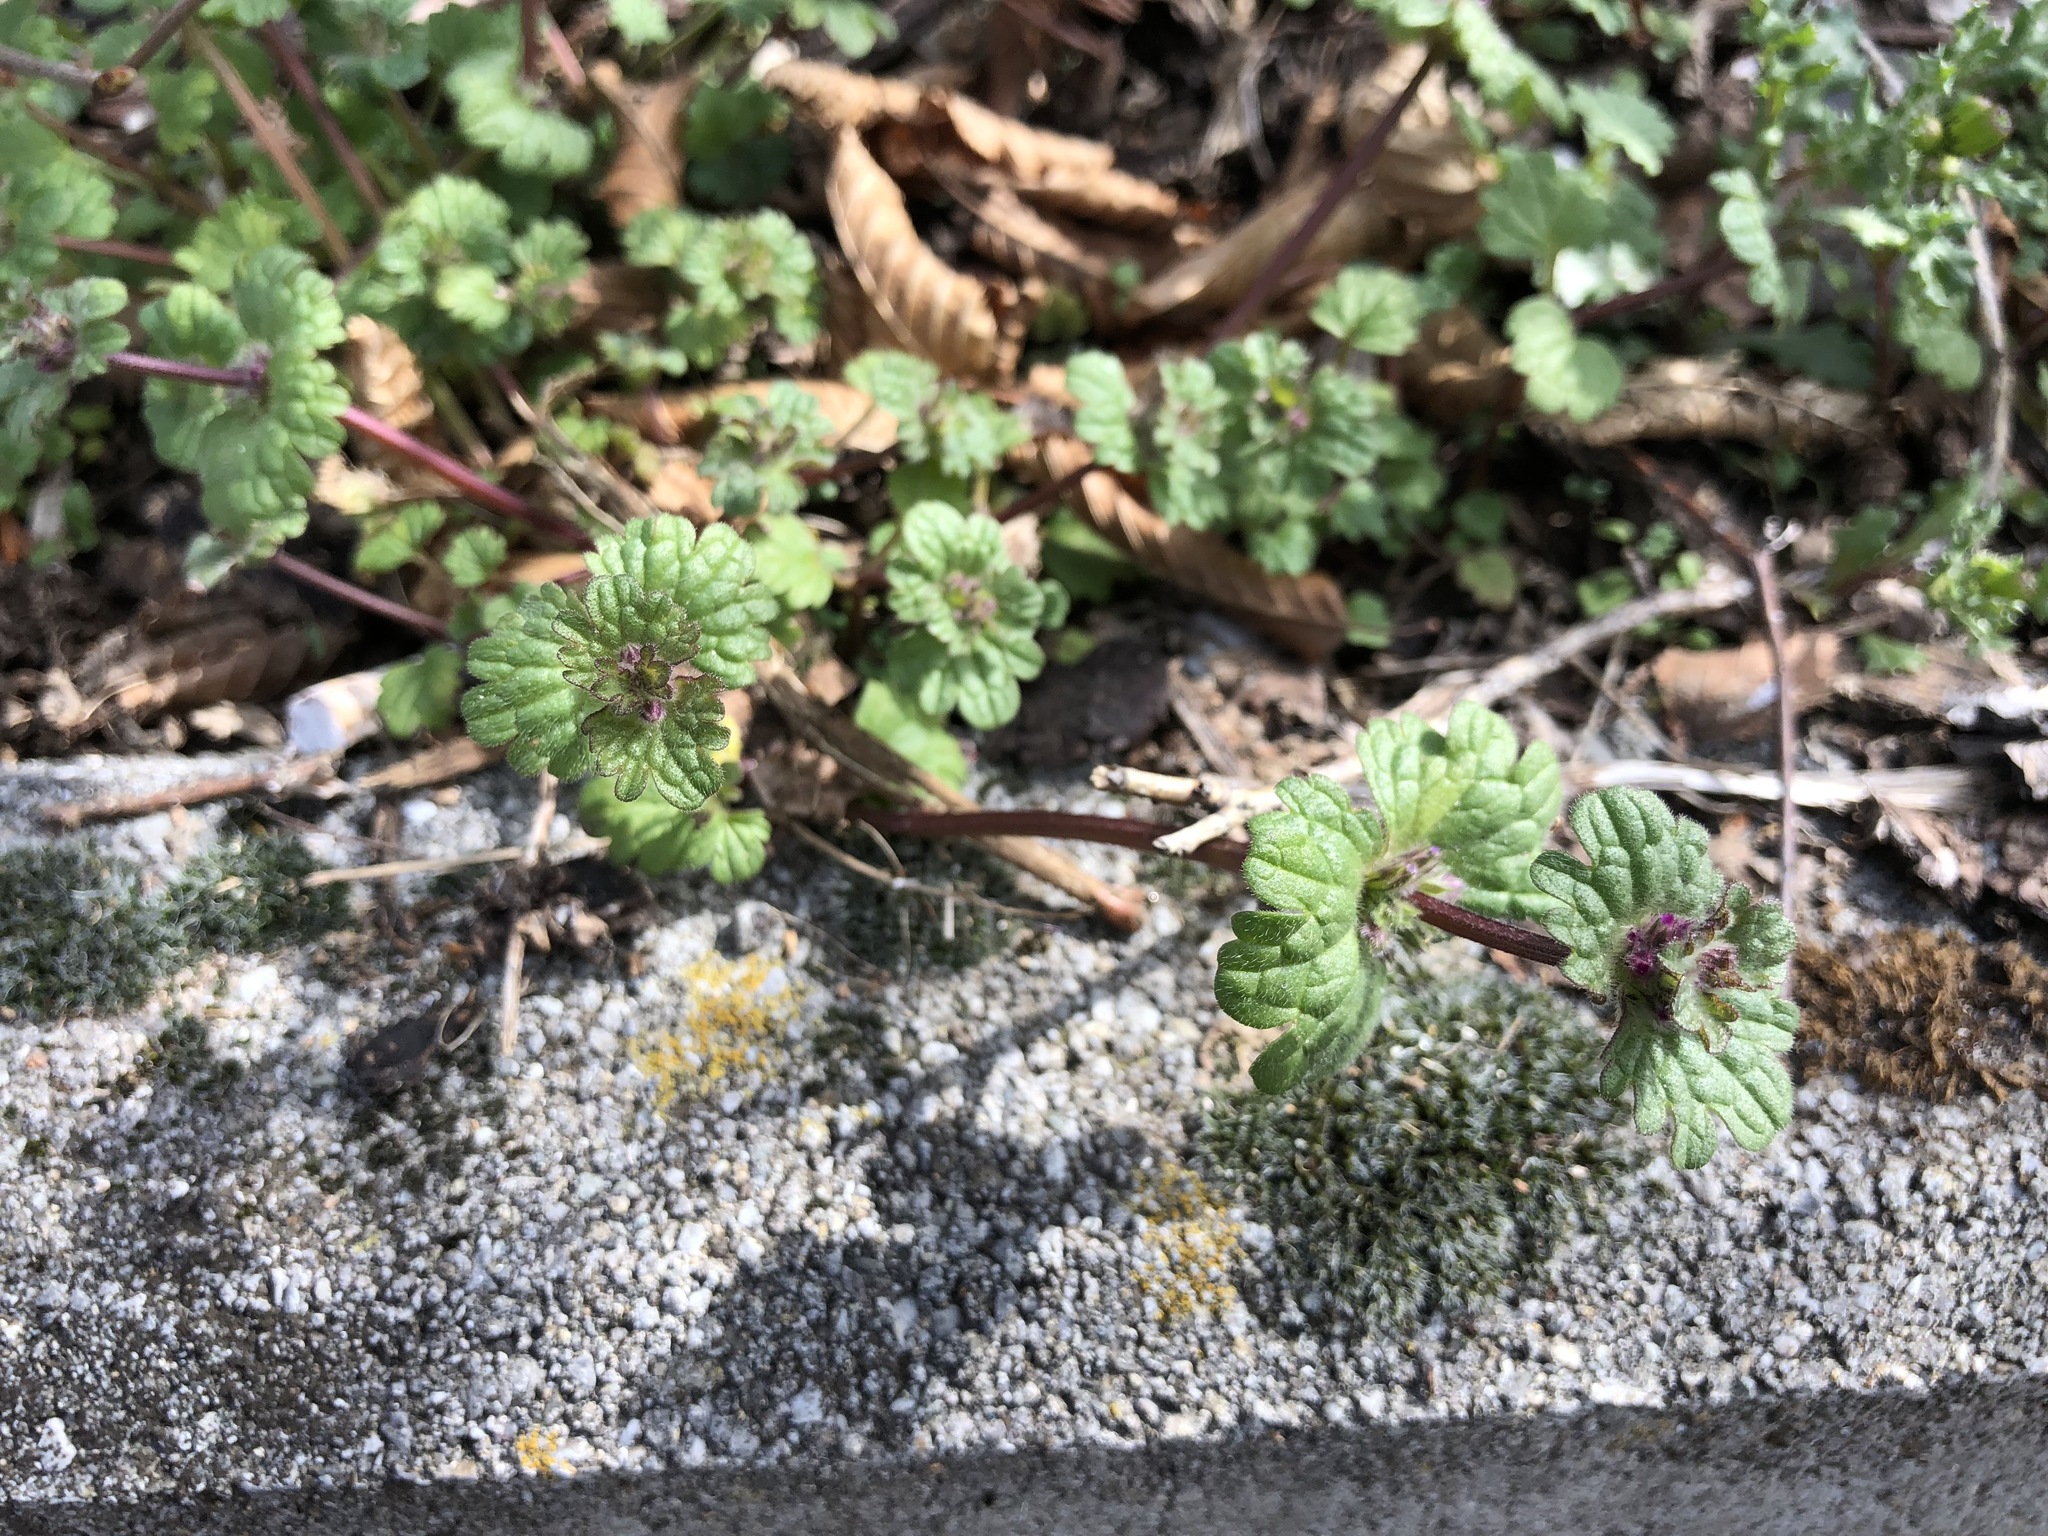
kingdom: Plantae
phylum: Tracheophyta
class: Magnoliopsida
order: Lamiales
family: Lamiaceae
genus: Lamium
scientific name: Lamium amplexicaule
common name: Henbit dead-nettle
